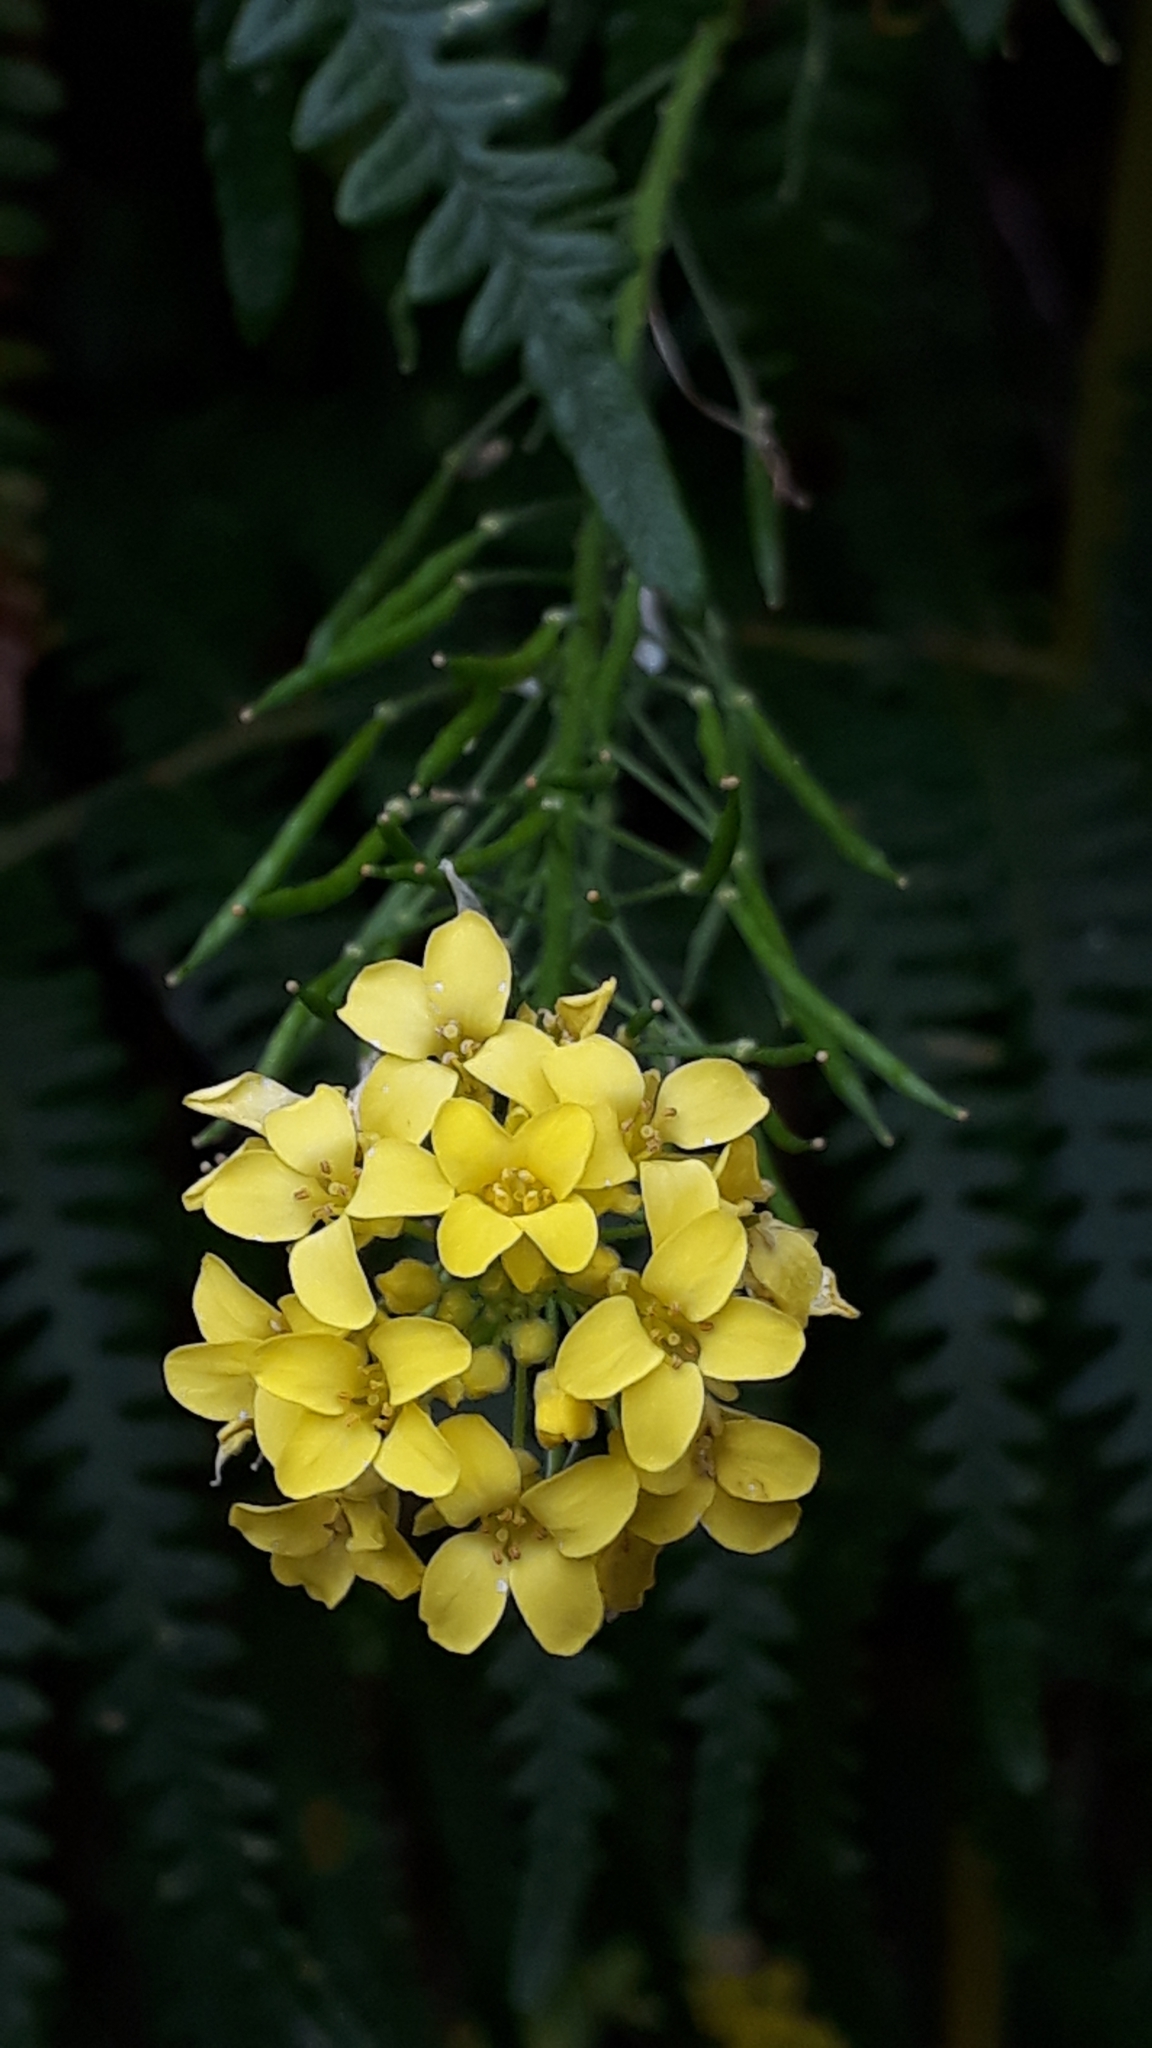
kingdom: Plantae
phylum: Tracheophyta
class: Magnoliopsida
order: Brassicales
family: Brassicaceae
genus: Descurainia
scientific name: Descurainia millefolia
